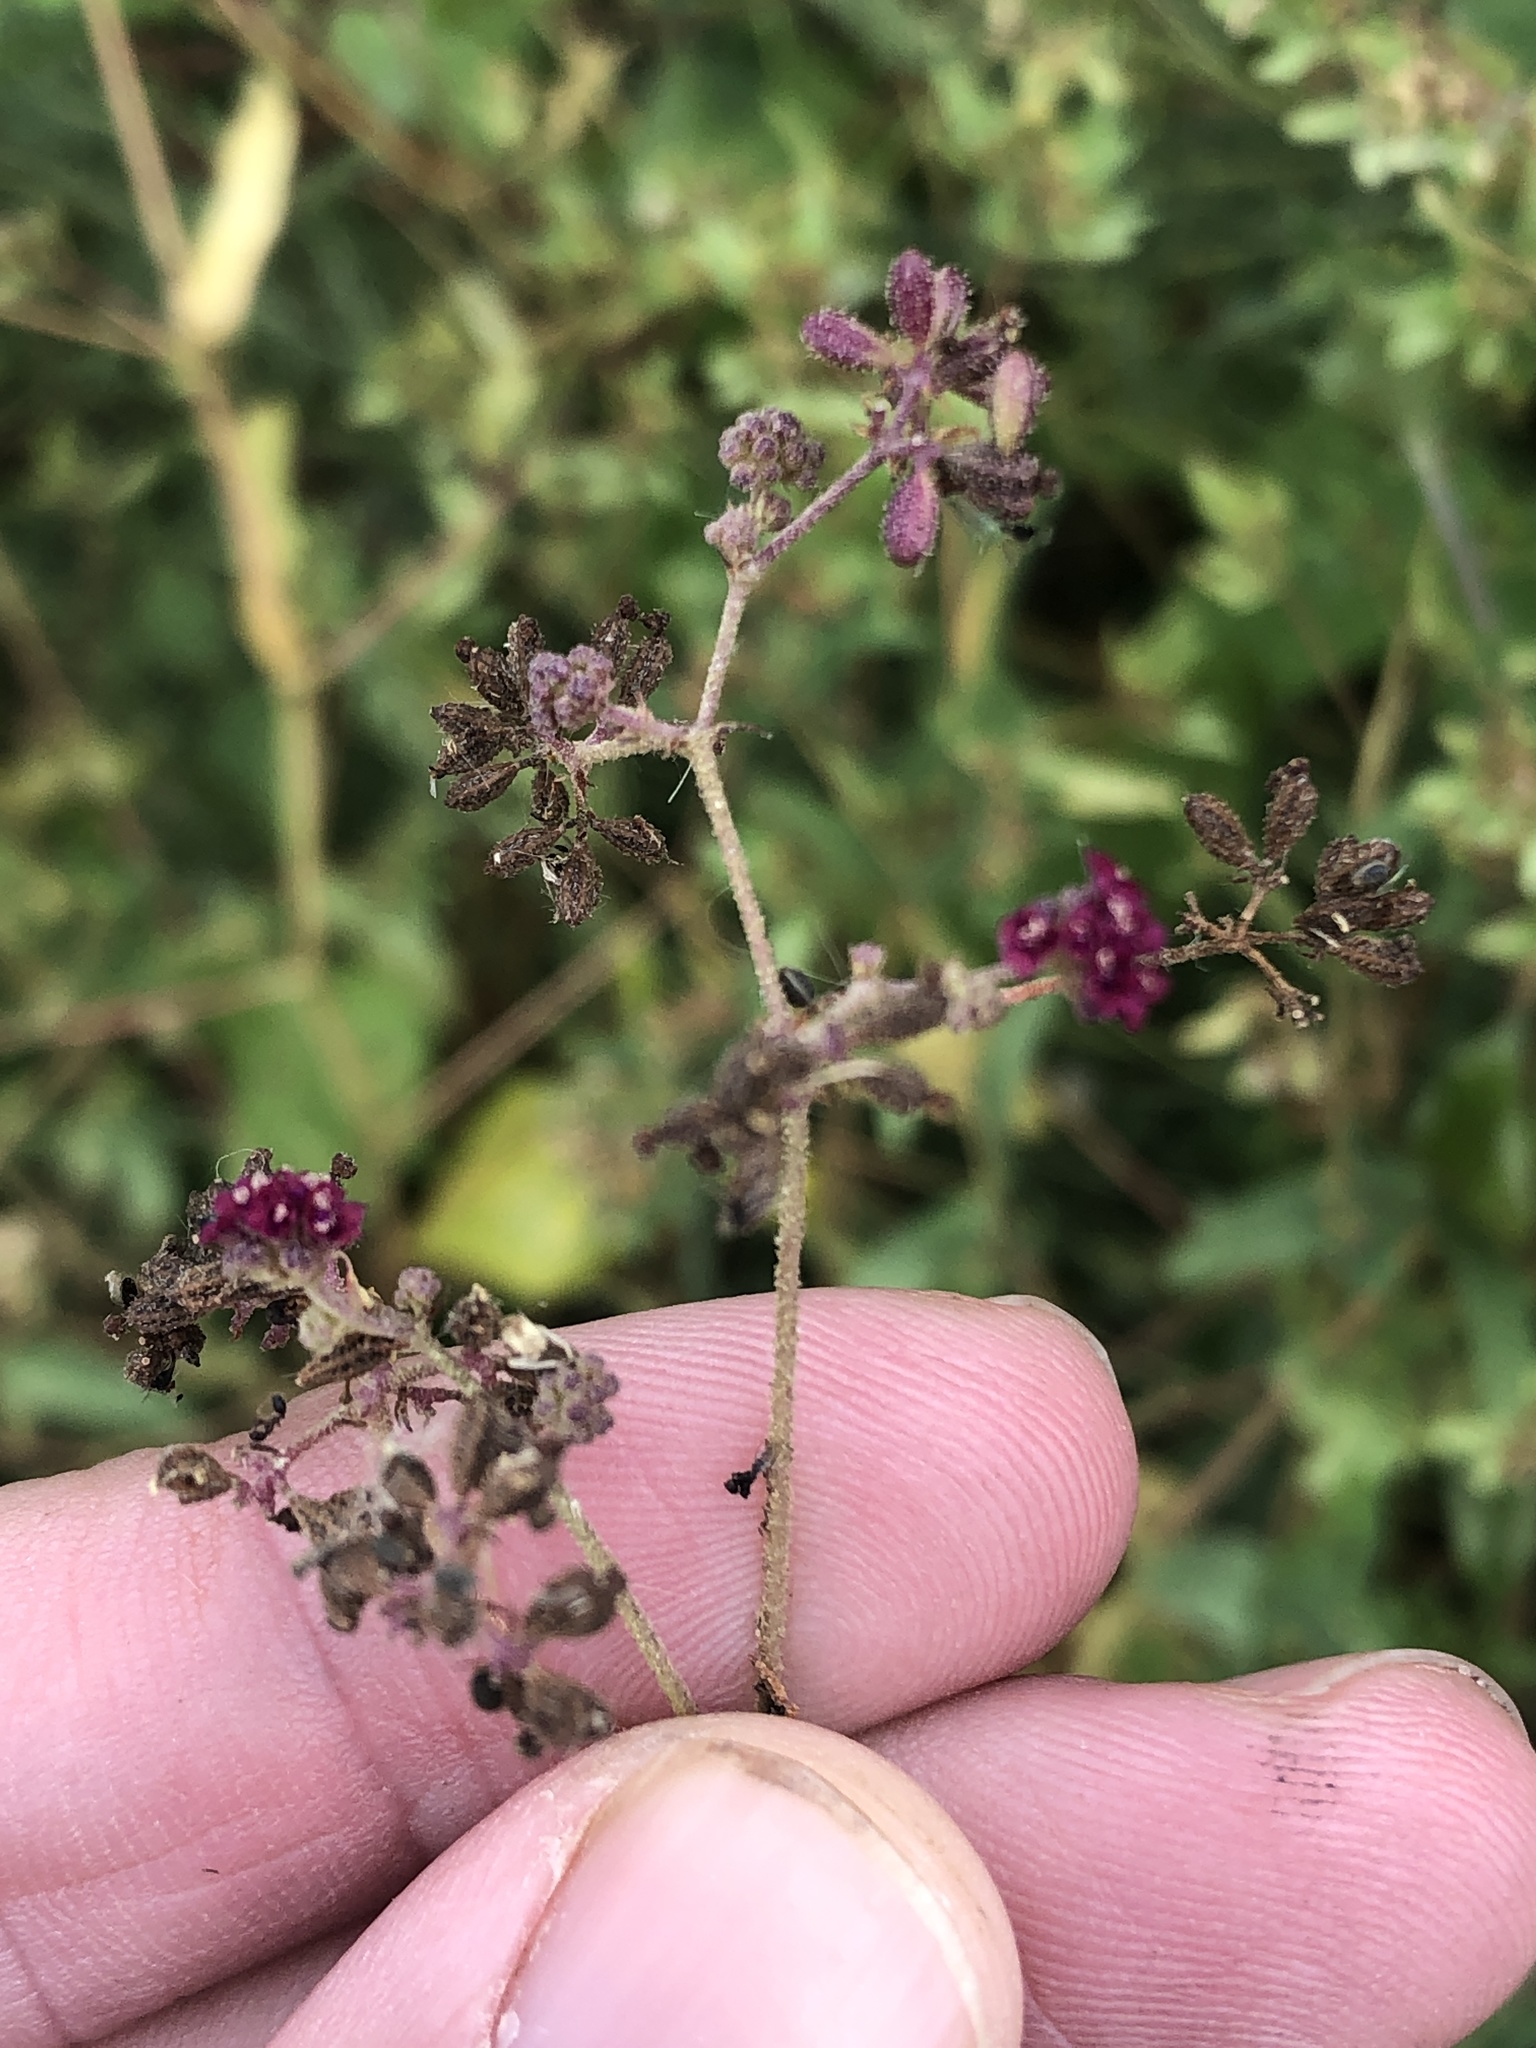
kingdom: Plantae
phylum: Tracheophyta
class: Magnoliopsida
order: Caryophyllales
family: Nyctaginaceae
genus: Boerhavia
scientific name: Boerhavia coccinea
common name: Scarlet spiderling
